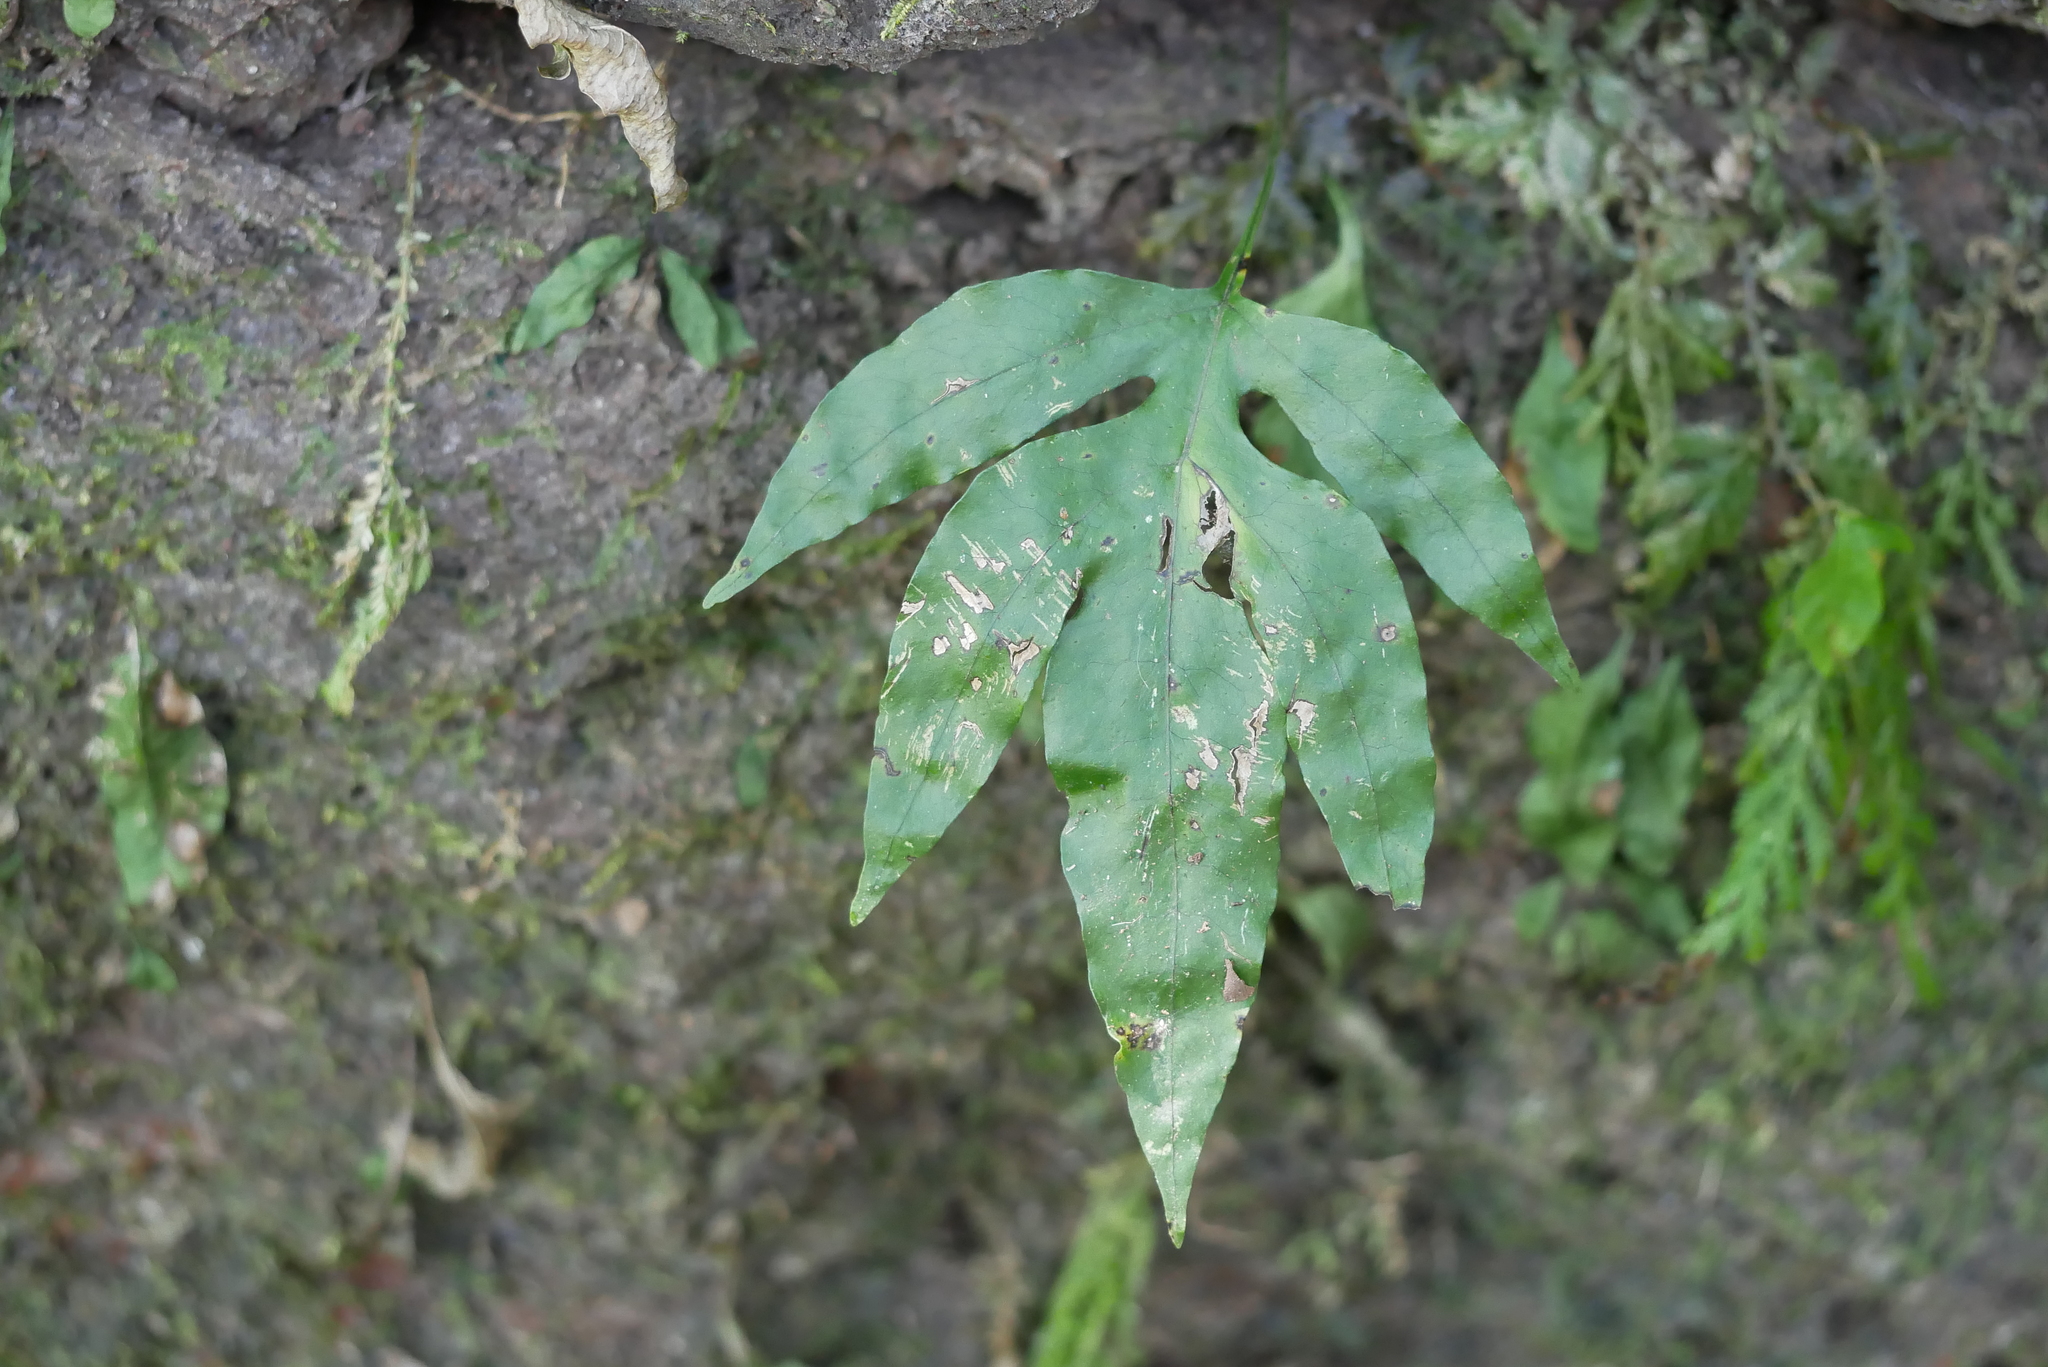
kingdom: Plantae
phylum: Tracheophyta
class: Polypodiopsida
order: Polypodiales
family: Polypodiaceae
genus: Leptochilus
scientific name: Leptochilus ellipticus
